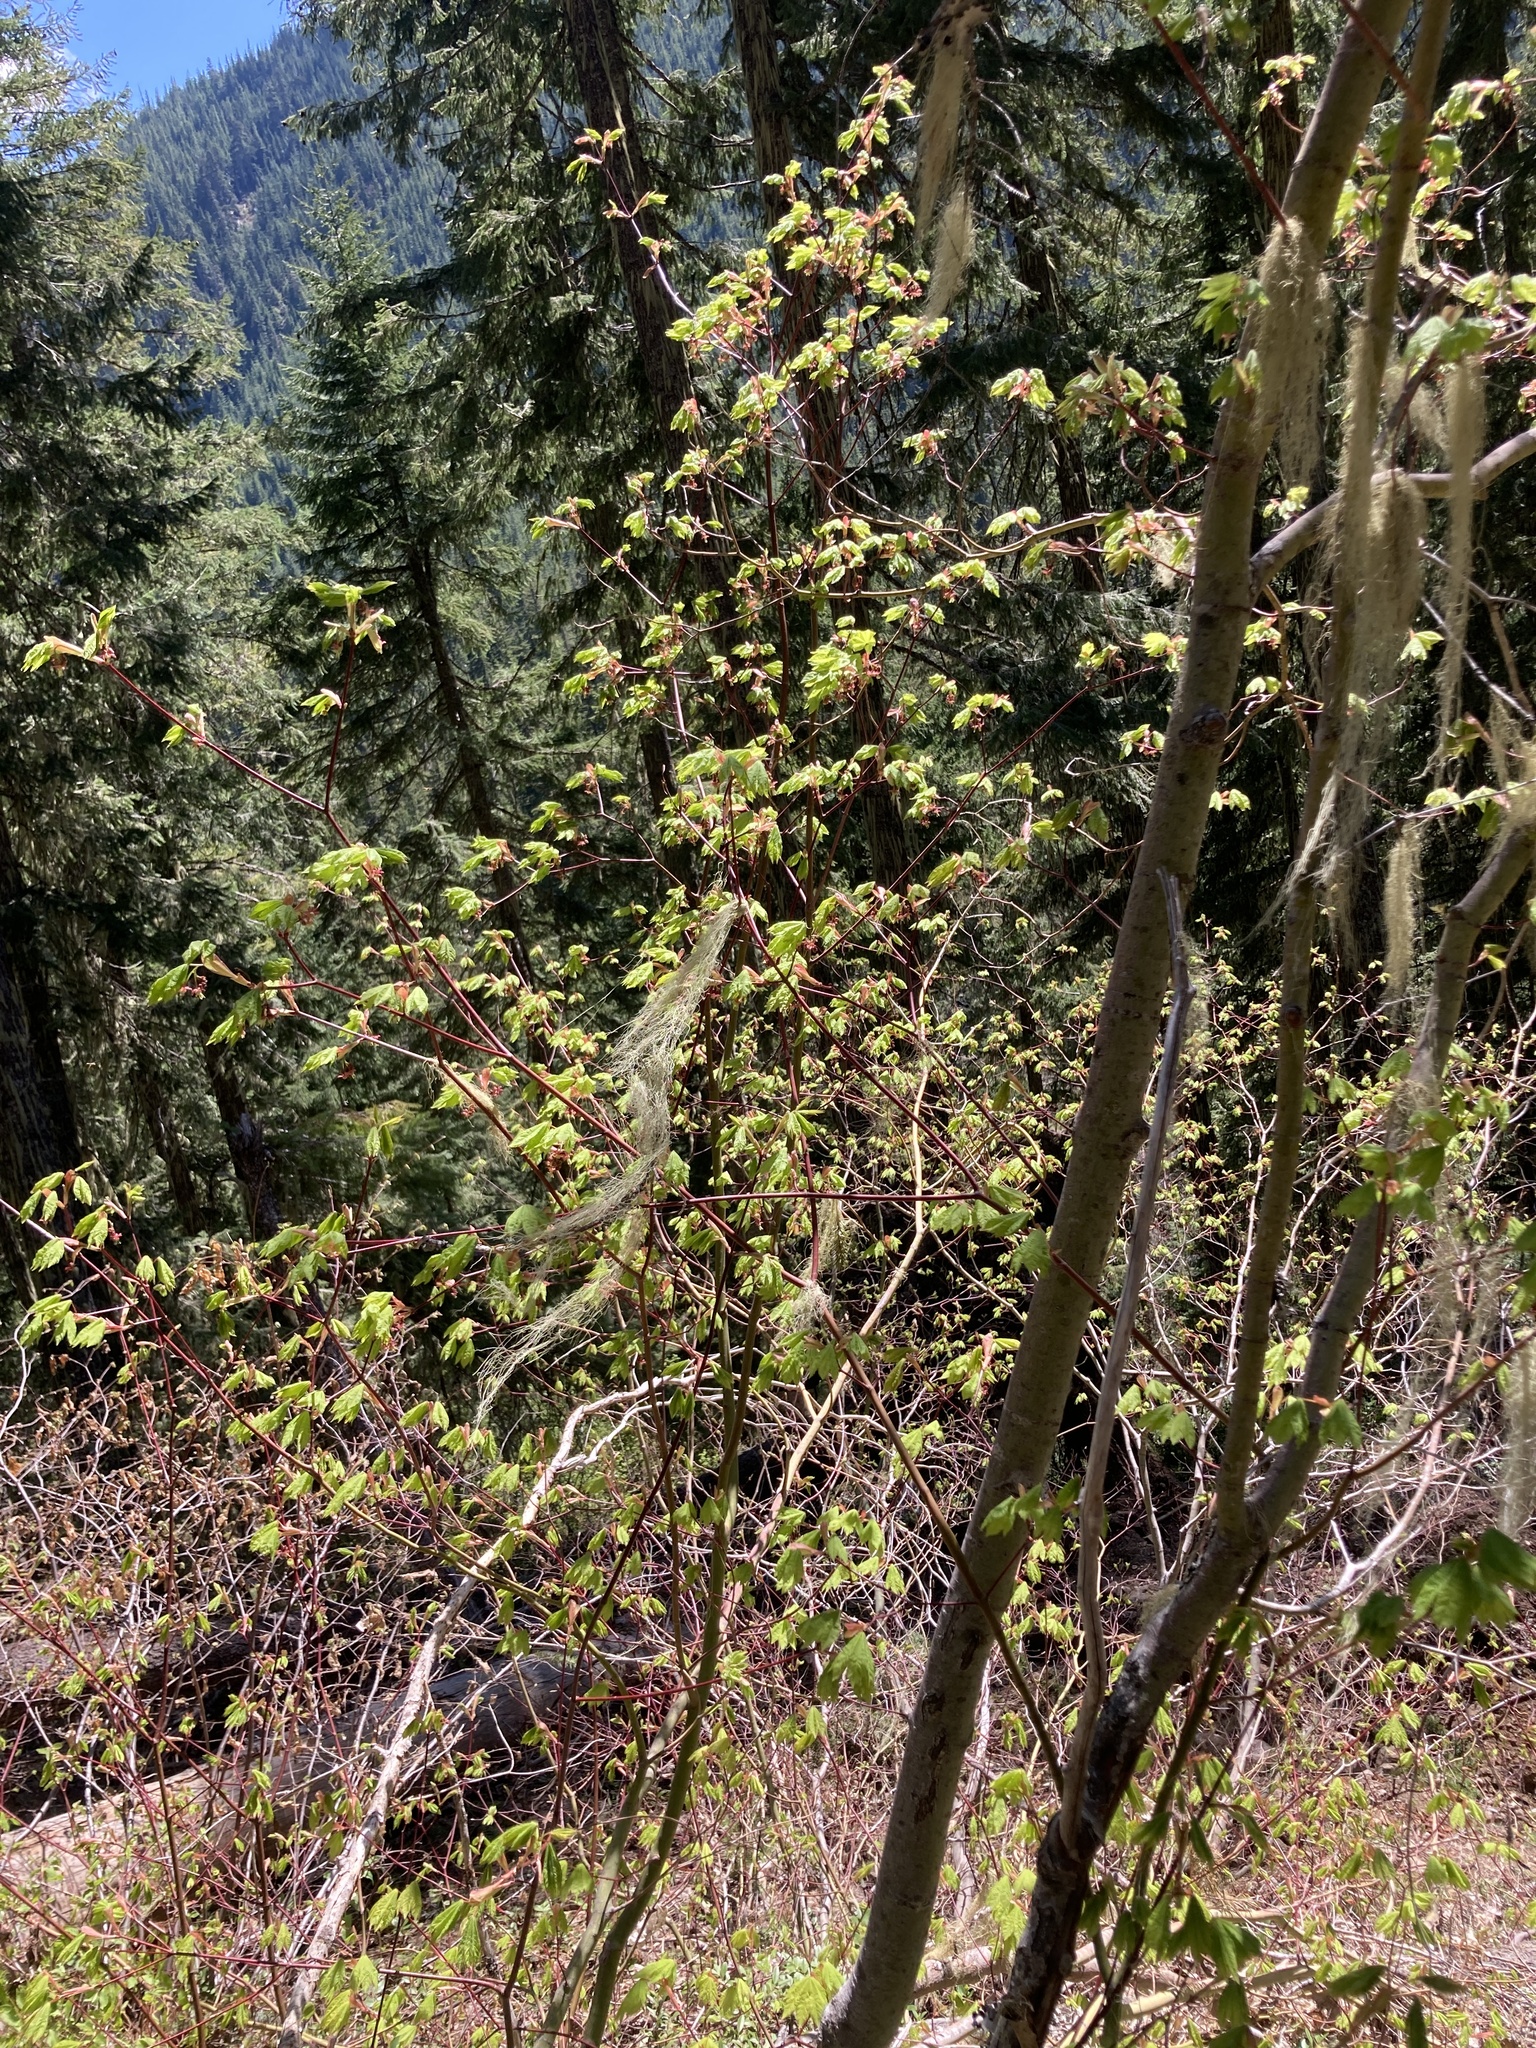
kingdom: Plantae
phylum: Tracheophyta
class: Magnoliopsida
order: Sapindales
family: Sapindaceae
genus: Acer
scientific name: Acer circinatum
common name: Vine maple
